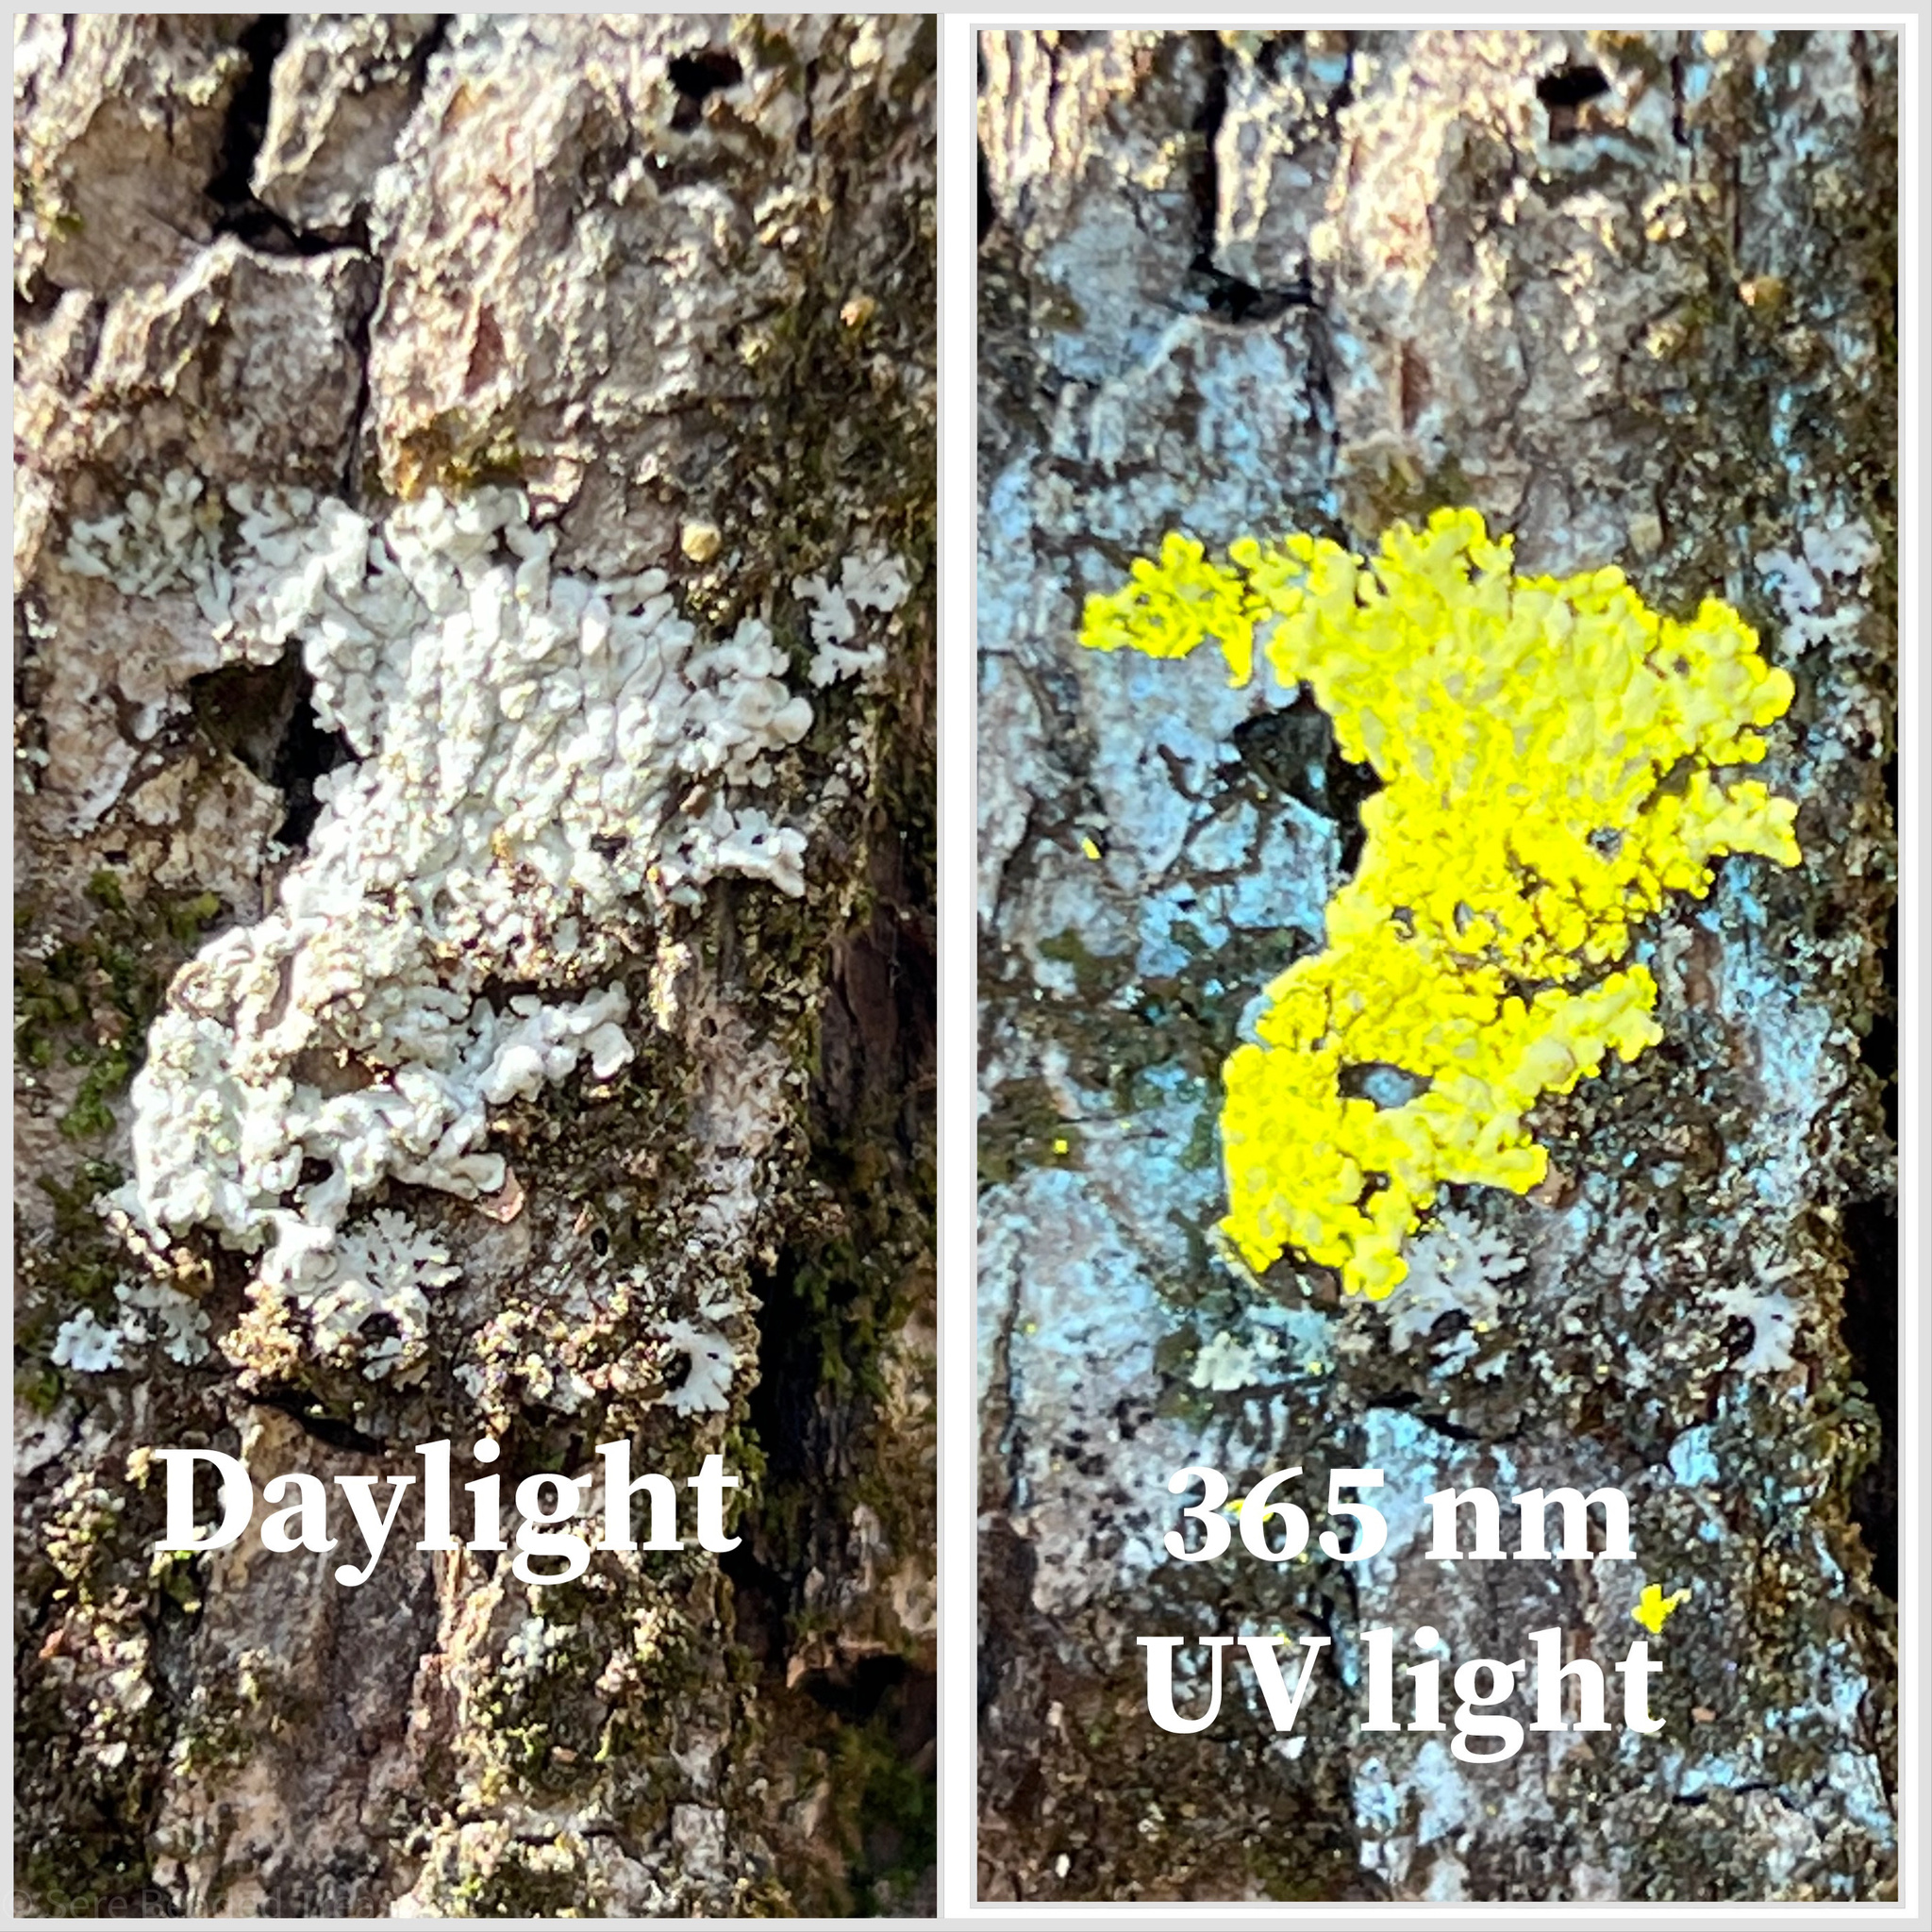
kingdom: Fungi
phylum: Ascomycota
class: Lecanoromycetes
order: Caliciales
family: Caliciaceae
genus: Pyxine
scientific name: Pyxine subcinerea
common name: Mustard lichen
